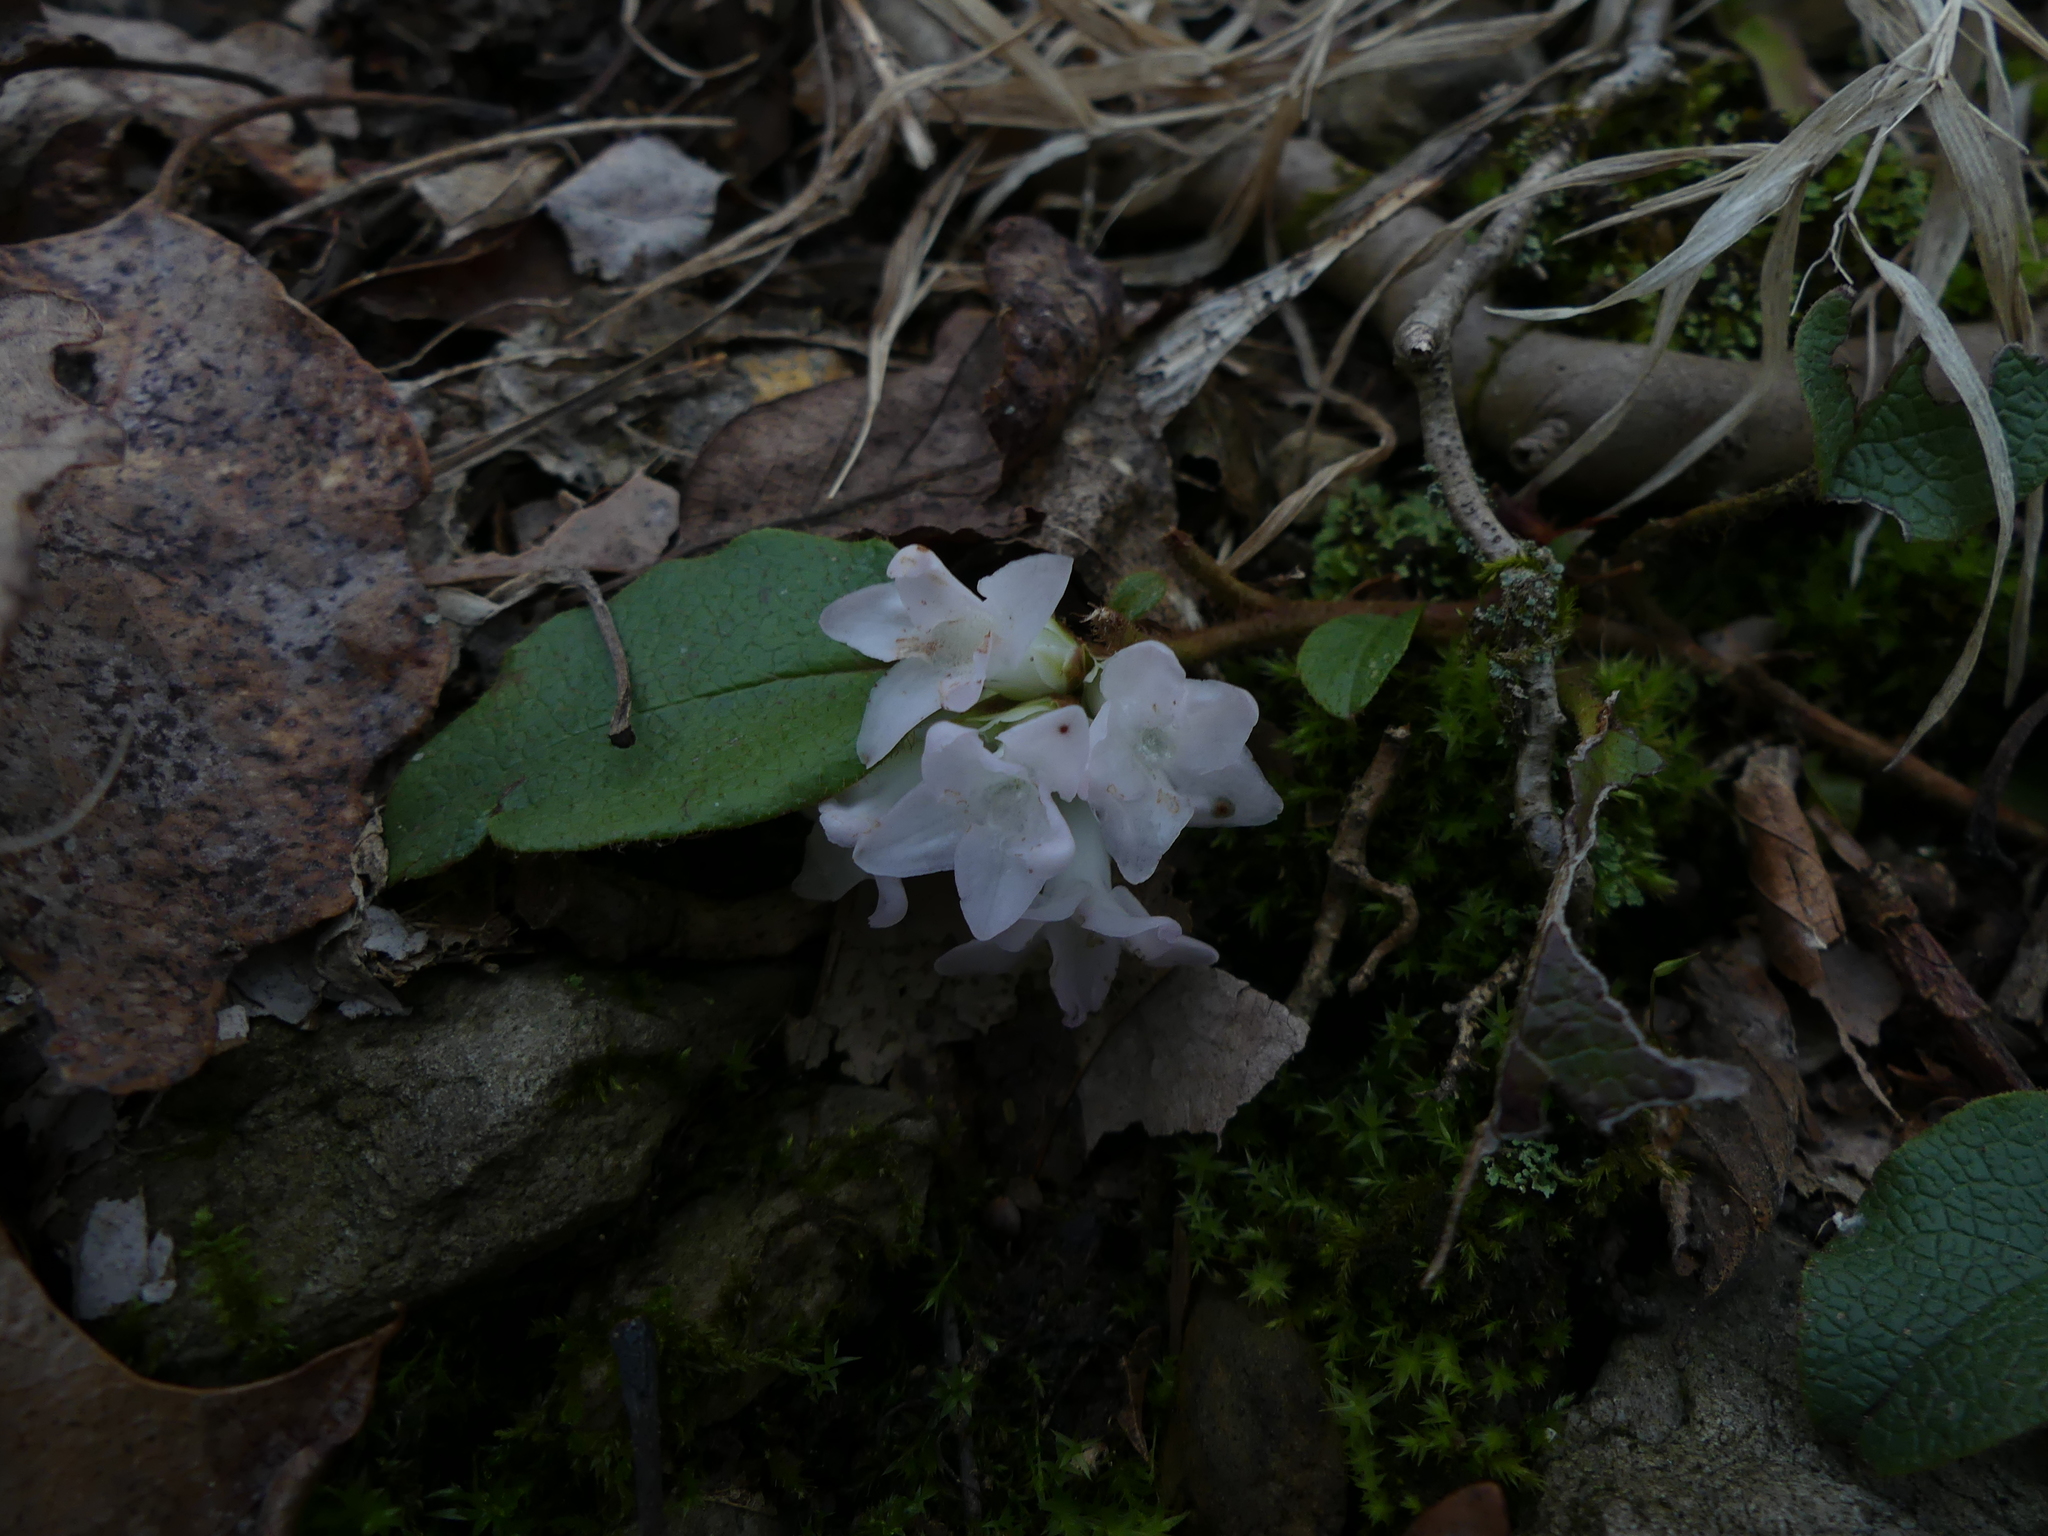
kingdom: Plantae
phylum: Tracheophyta
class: Magnoliopsida
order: Ericales
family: Ericaceae
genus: Epigaea
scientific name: Epigaea repens
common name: Gravelroot
